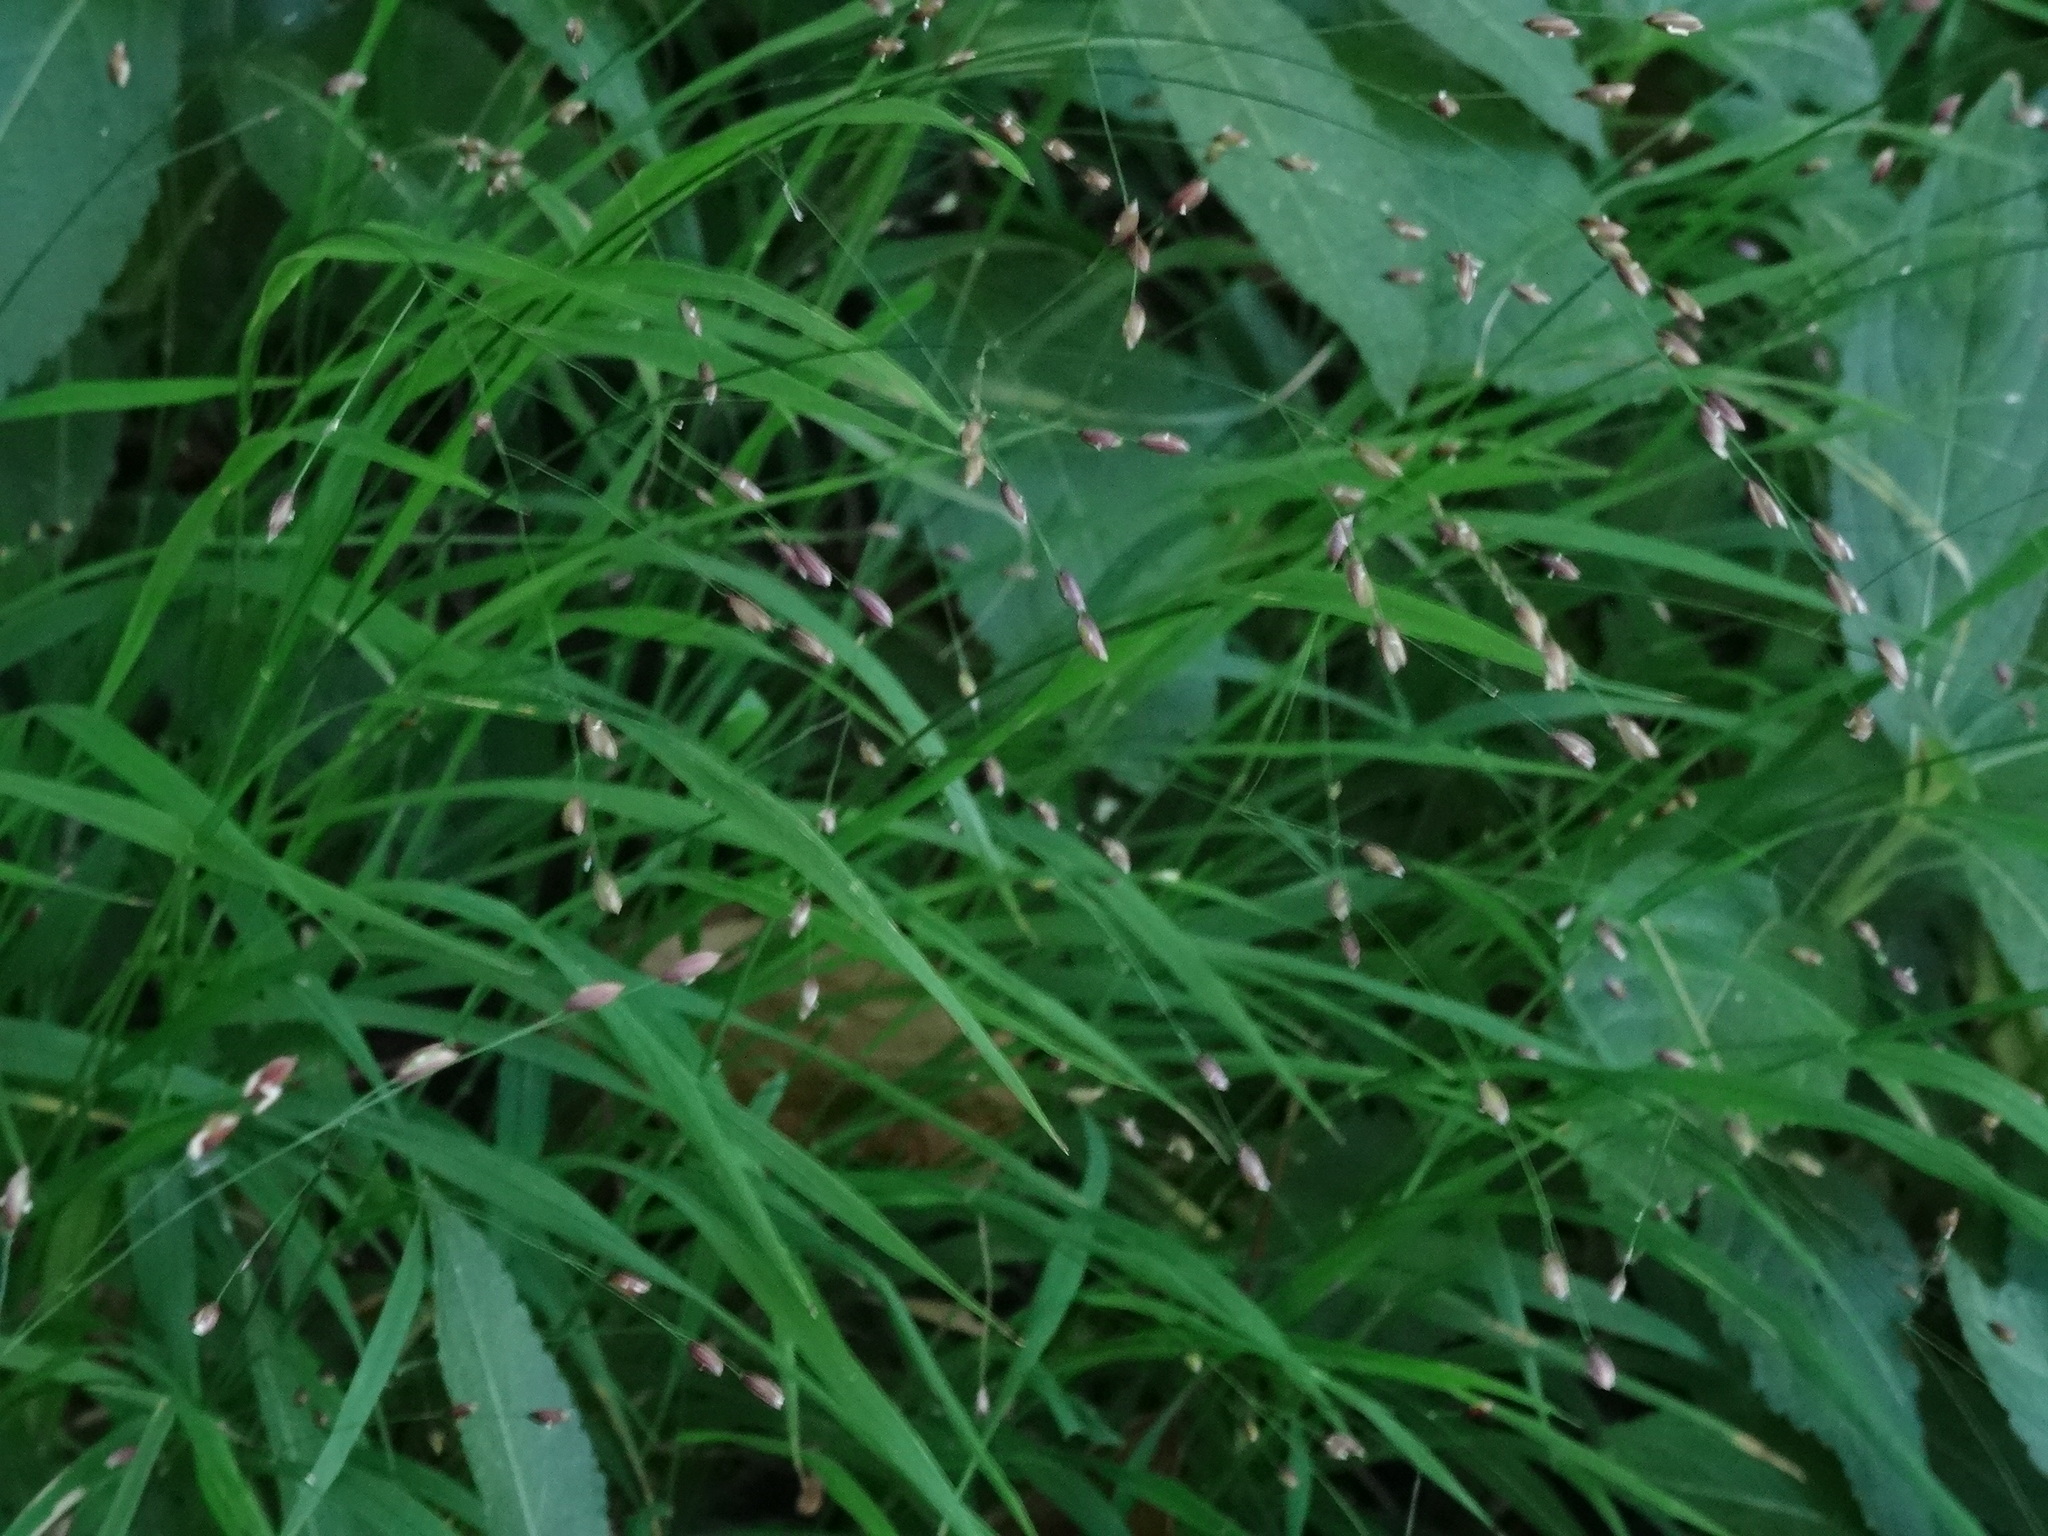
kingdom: Plantae
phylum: Tracheophyta
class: Liliopsida
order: Poales
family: Poaceae
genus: Melica
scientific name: Melica uniflora
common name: Wood melick
